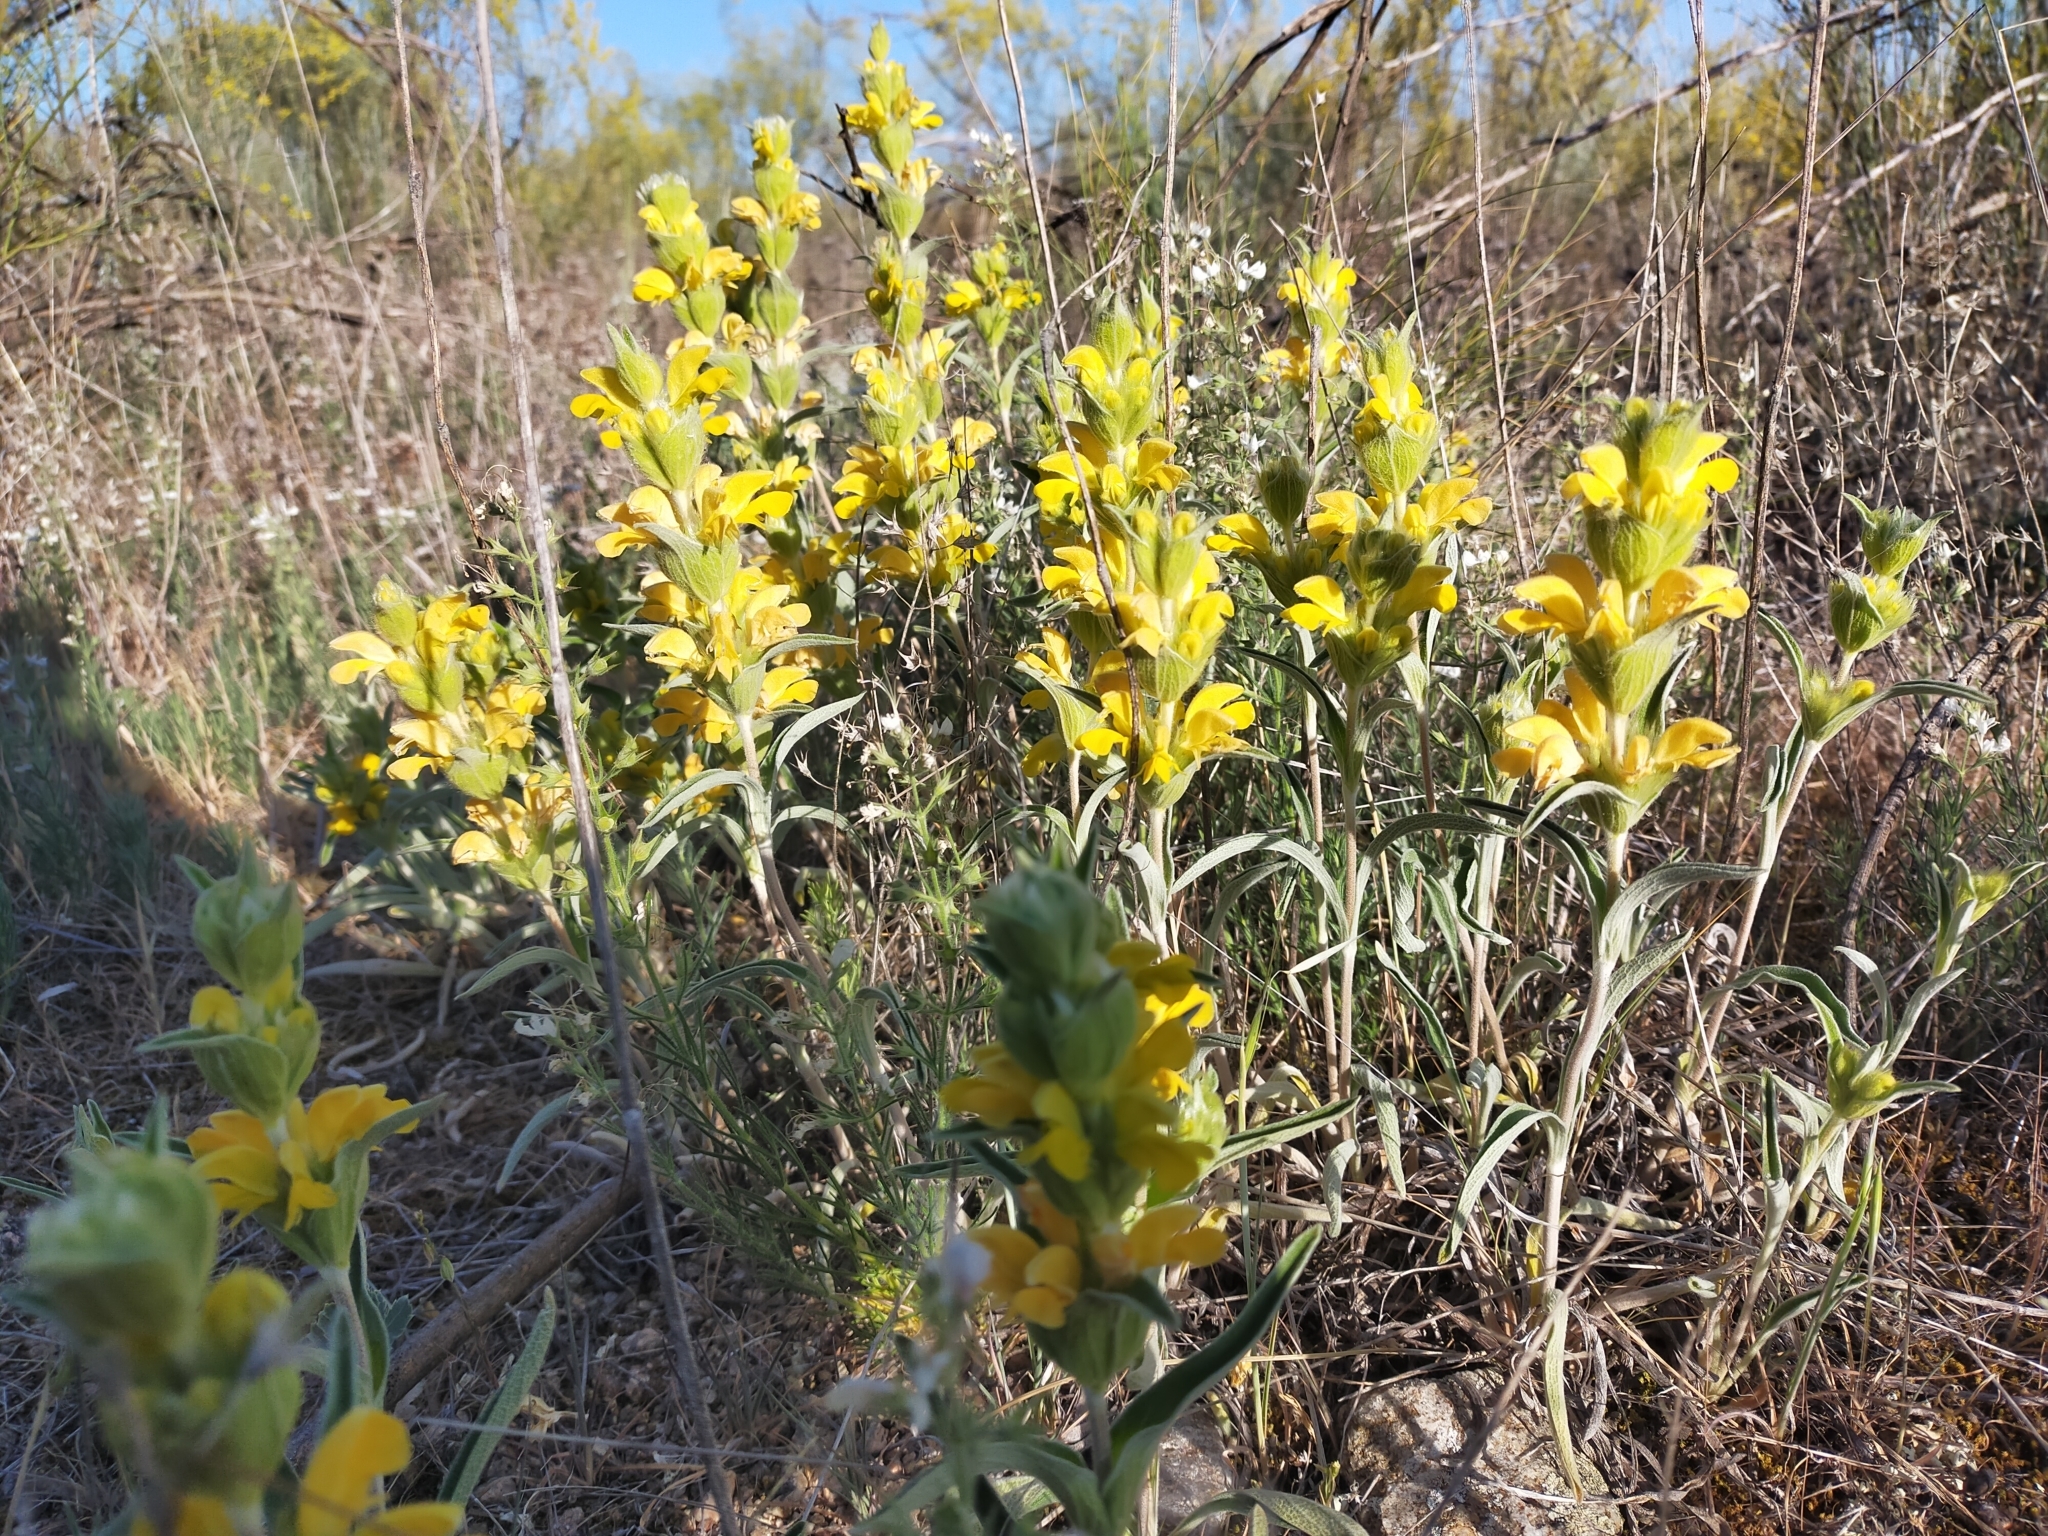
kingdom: Plantae
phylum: Tracheophyta
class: Magnoliopsida
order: Lamiales
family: Lamiaceae
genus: Phlomis
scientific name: Phlomis lychnitis
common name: Lampwickplant
